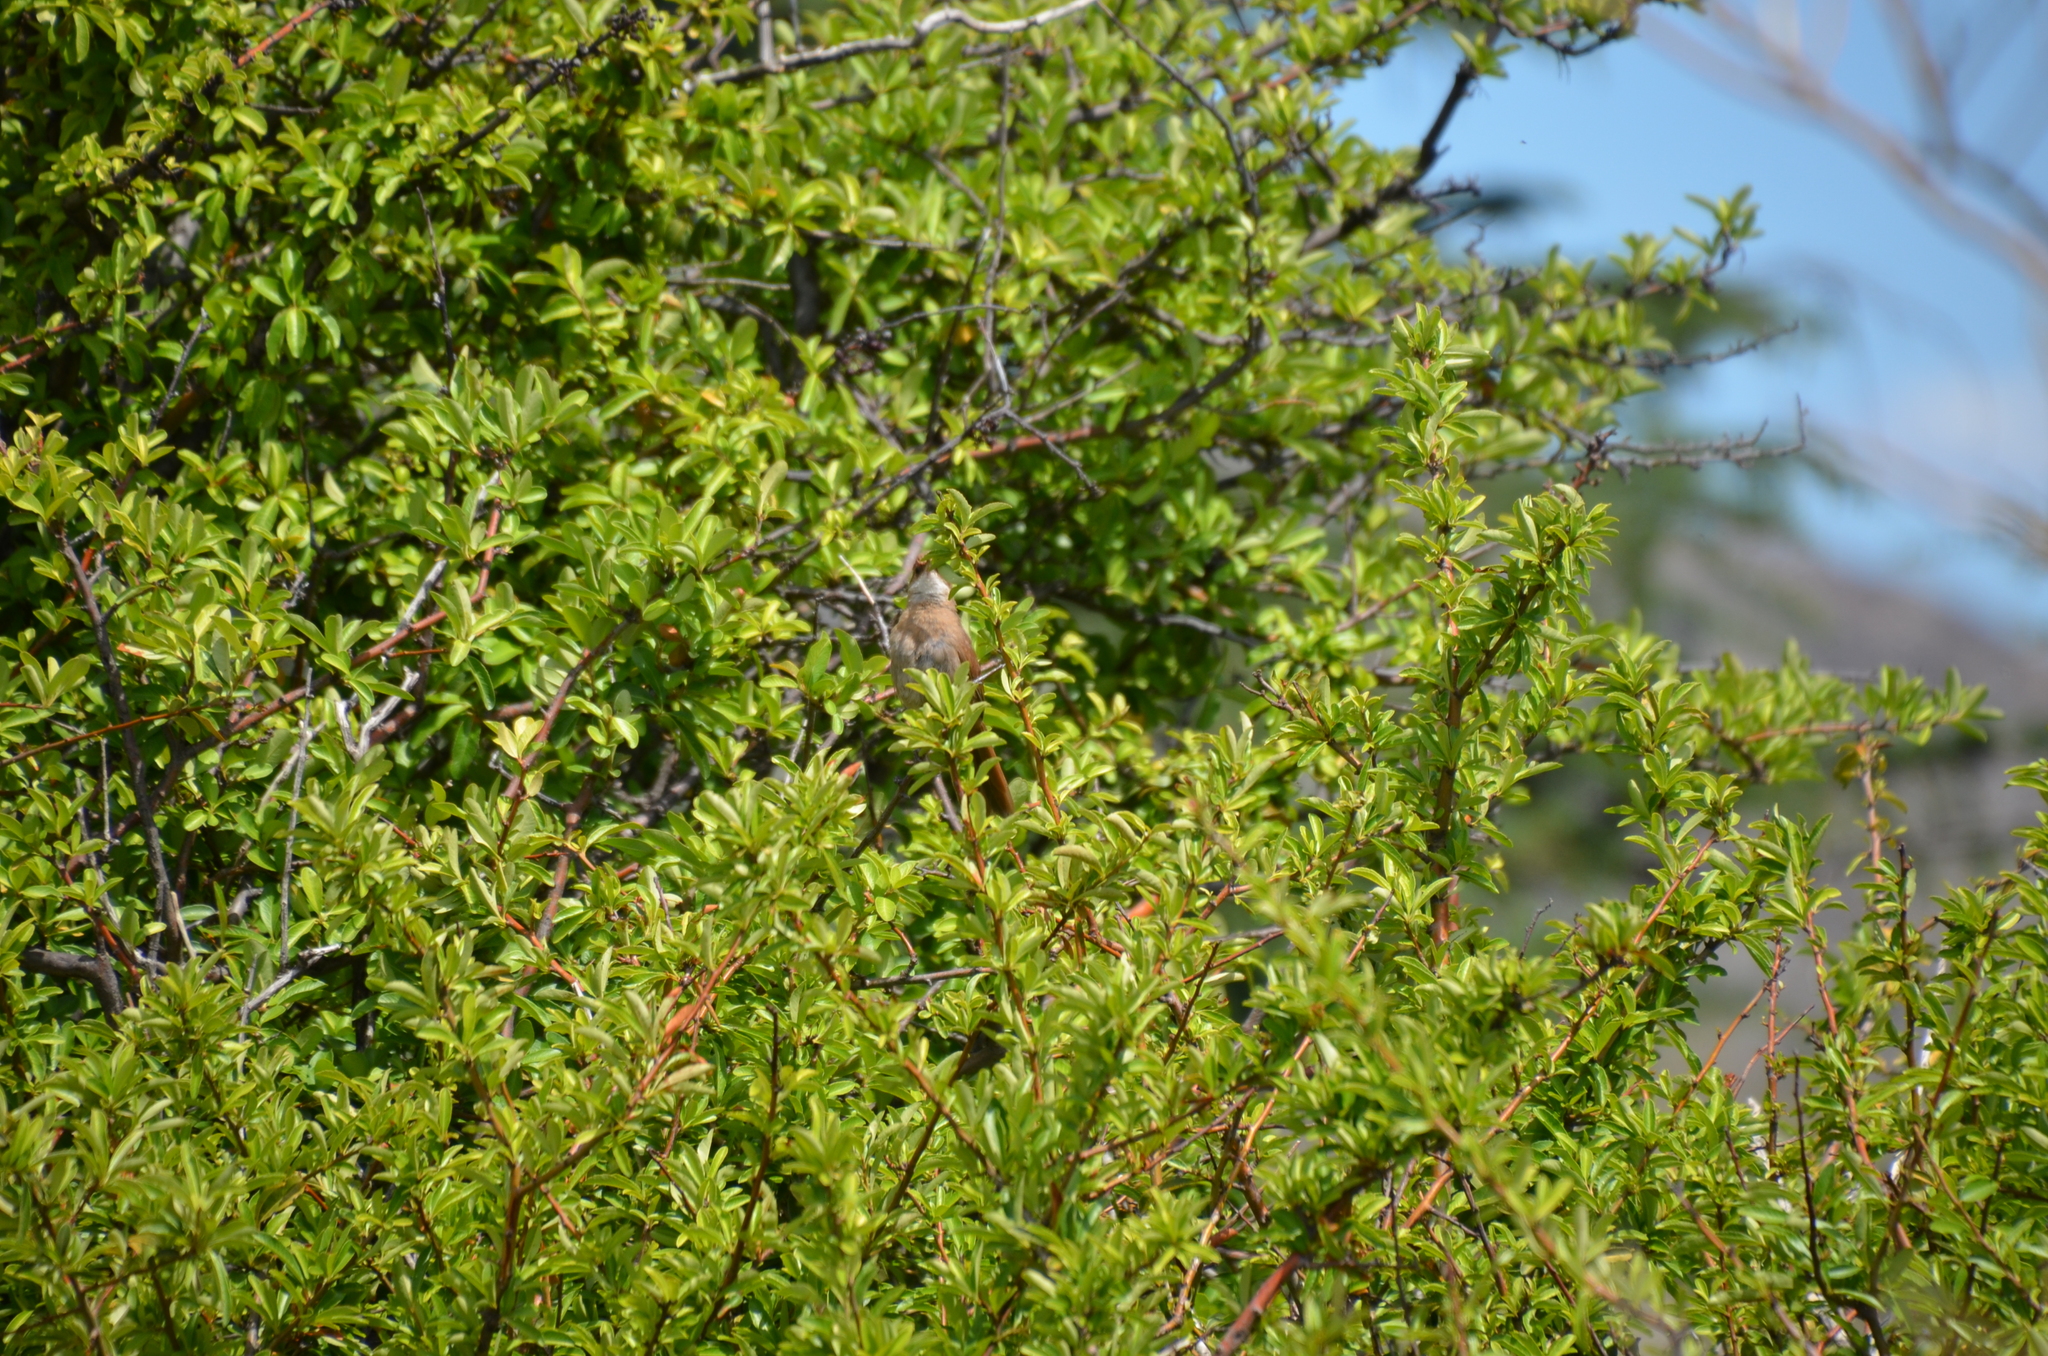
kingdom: Animalia
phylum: Chordata
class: Aves
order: Passeriformes
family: Furnariidae
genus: Upucerthia
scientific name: Upucerthia certhioides
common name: Chaco earthcreeper
